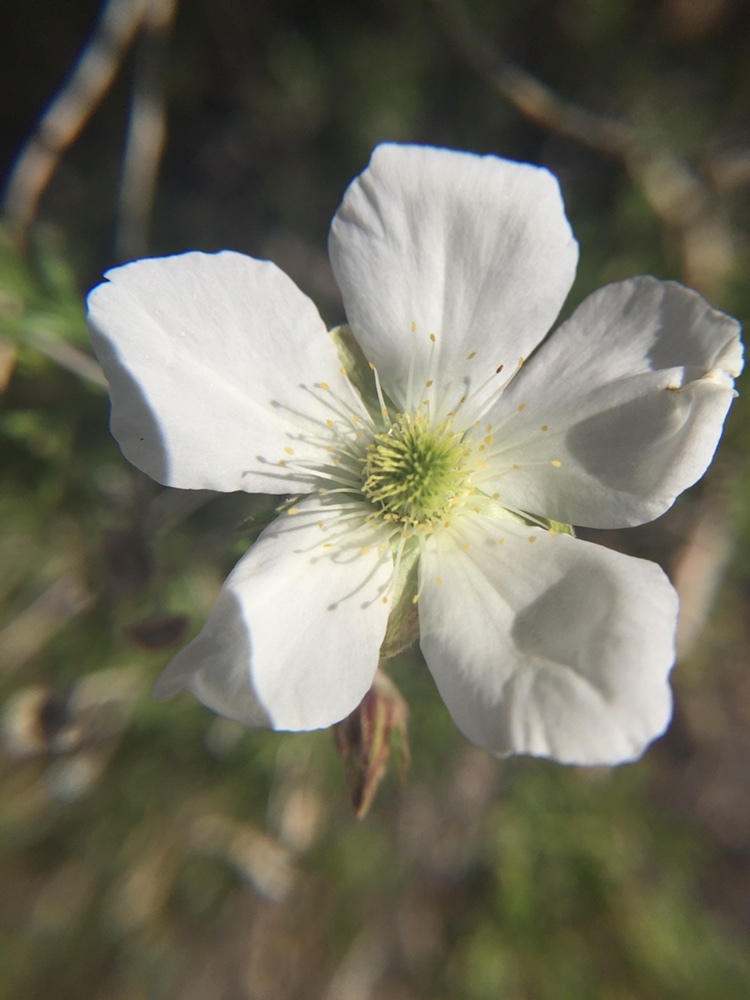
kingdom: Plantae
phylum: Tracheophyta
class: Magnoliopsida
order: Rosales
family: Rosaceae
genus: Fallugia
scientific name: Fallugia paradoxa
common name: Apache-plume
